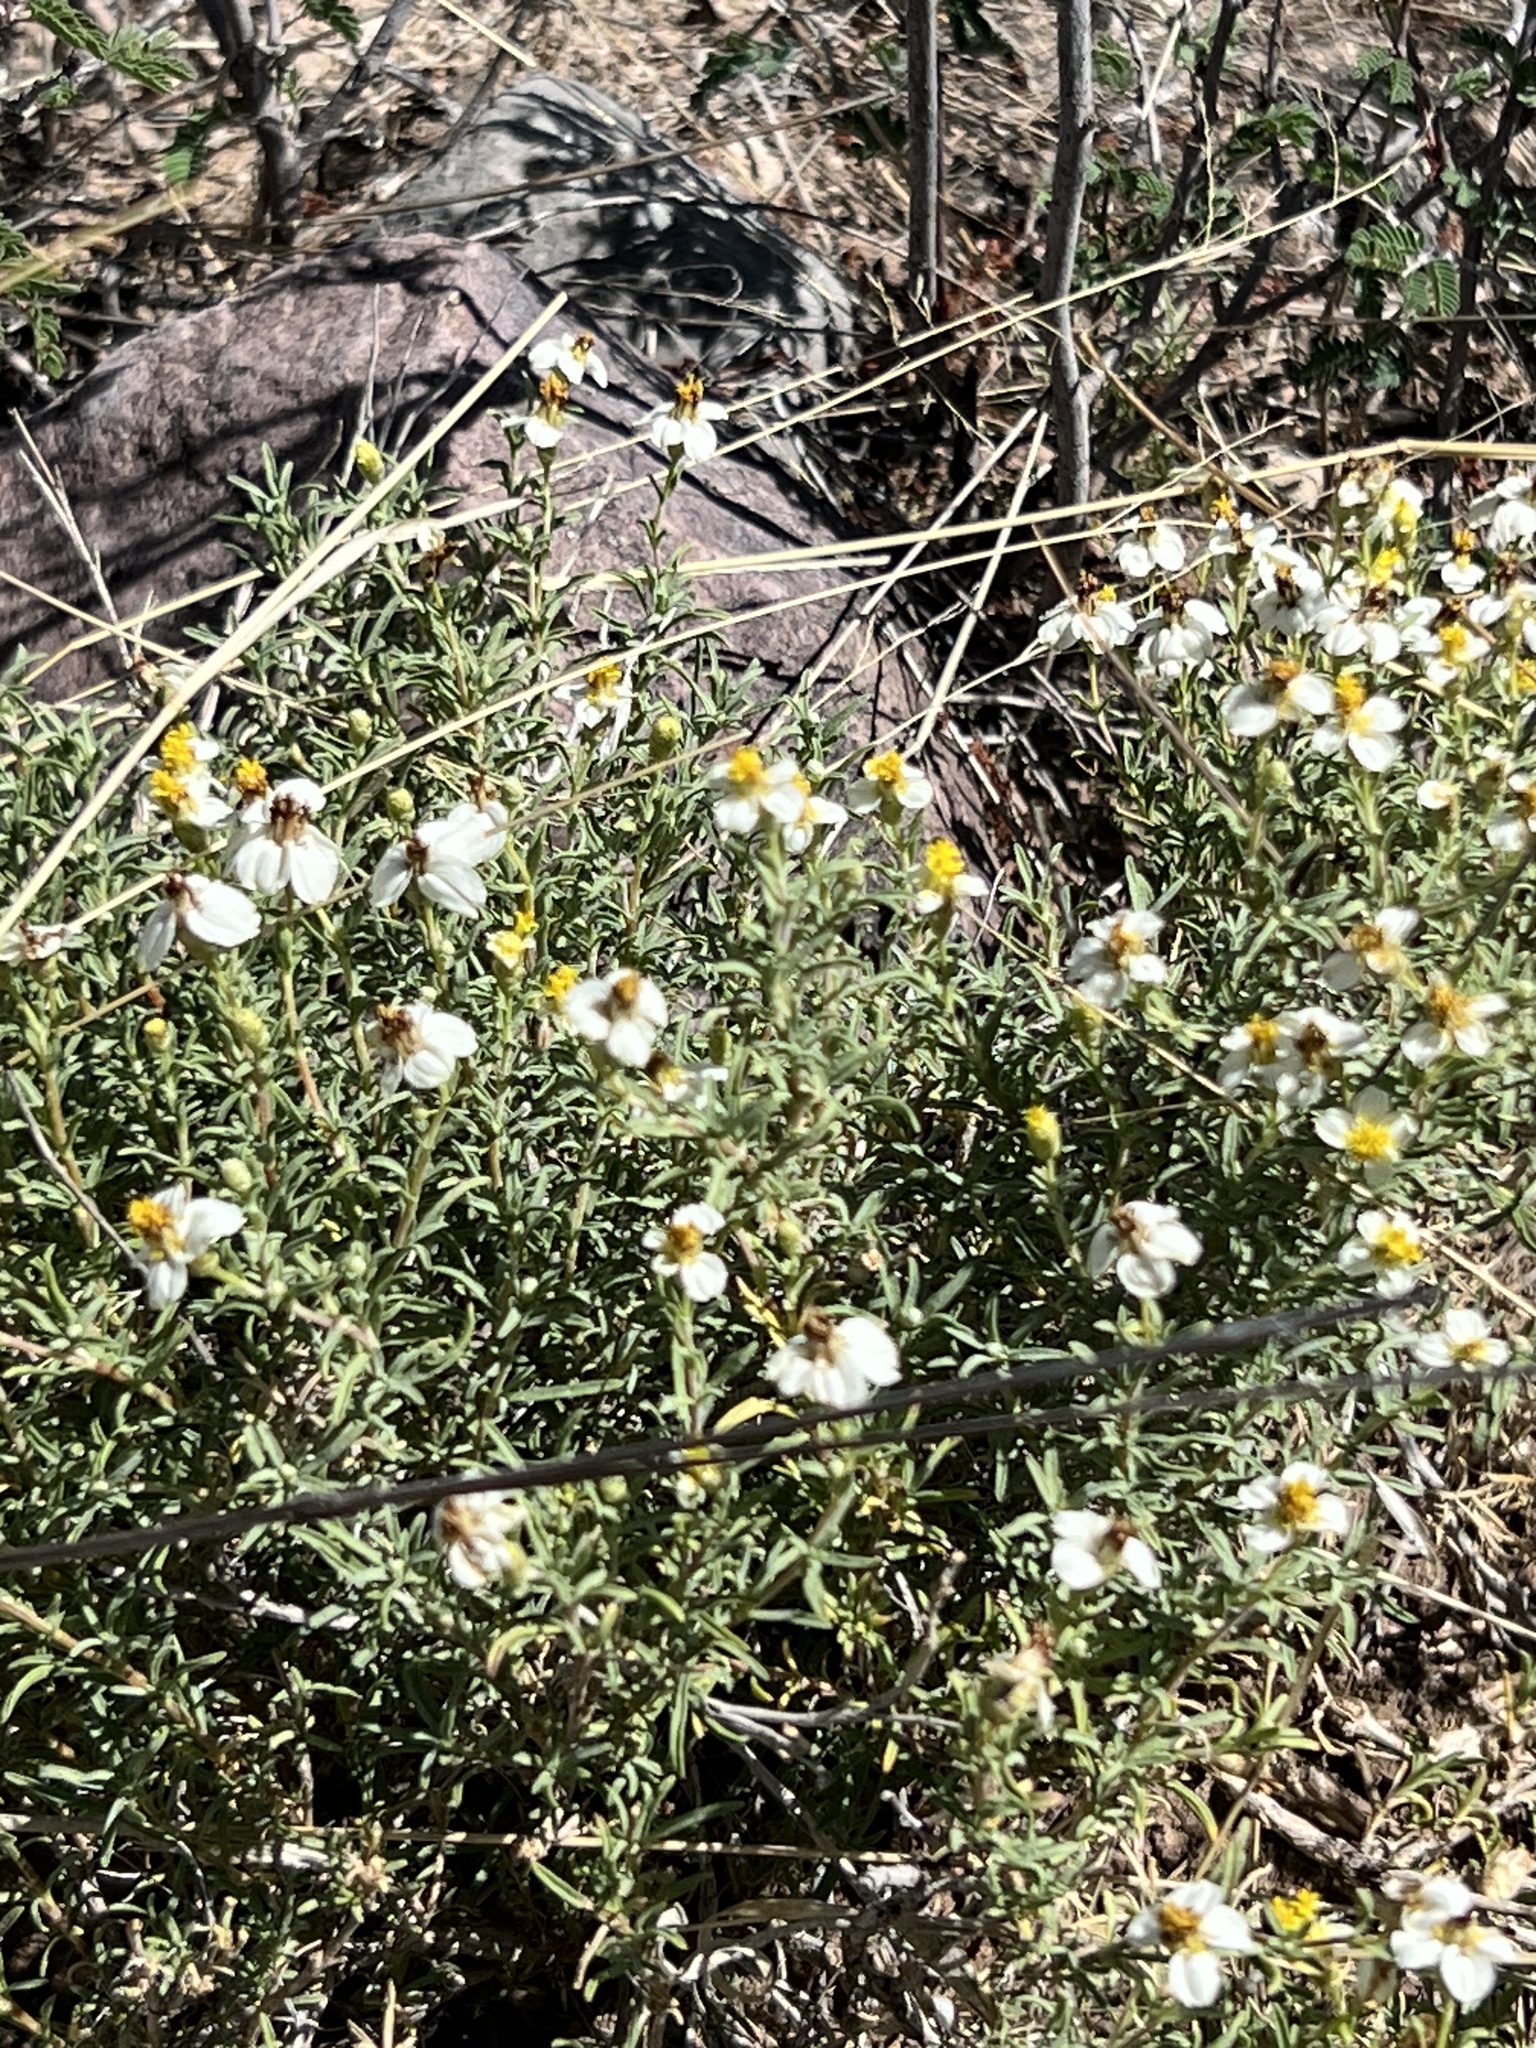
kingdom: Plantae
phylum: Tracheophyta
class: Magnoliopsida
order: Asterales
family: Asteraceae
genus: Zinnia
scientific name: Zinnia acerosa
